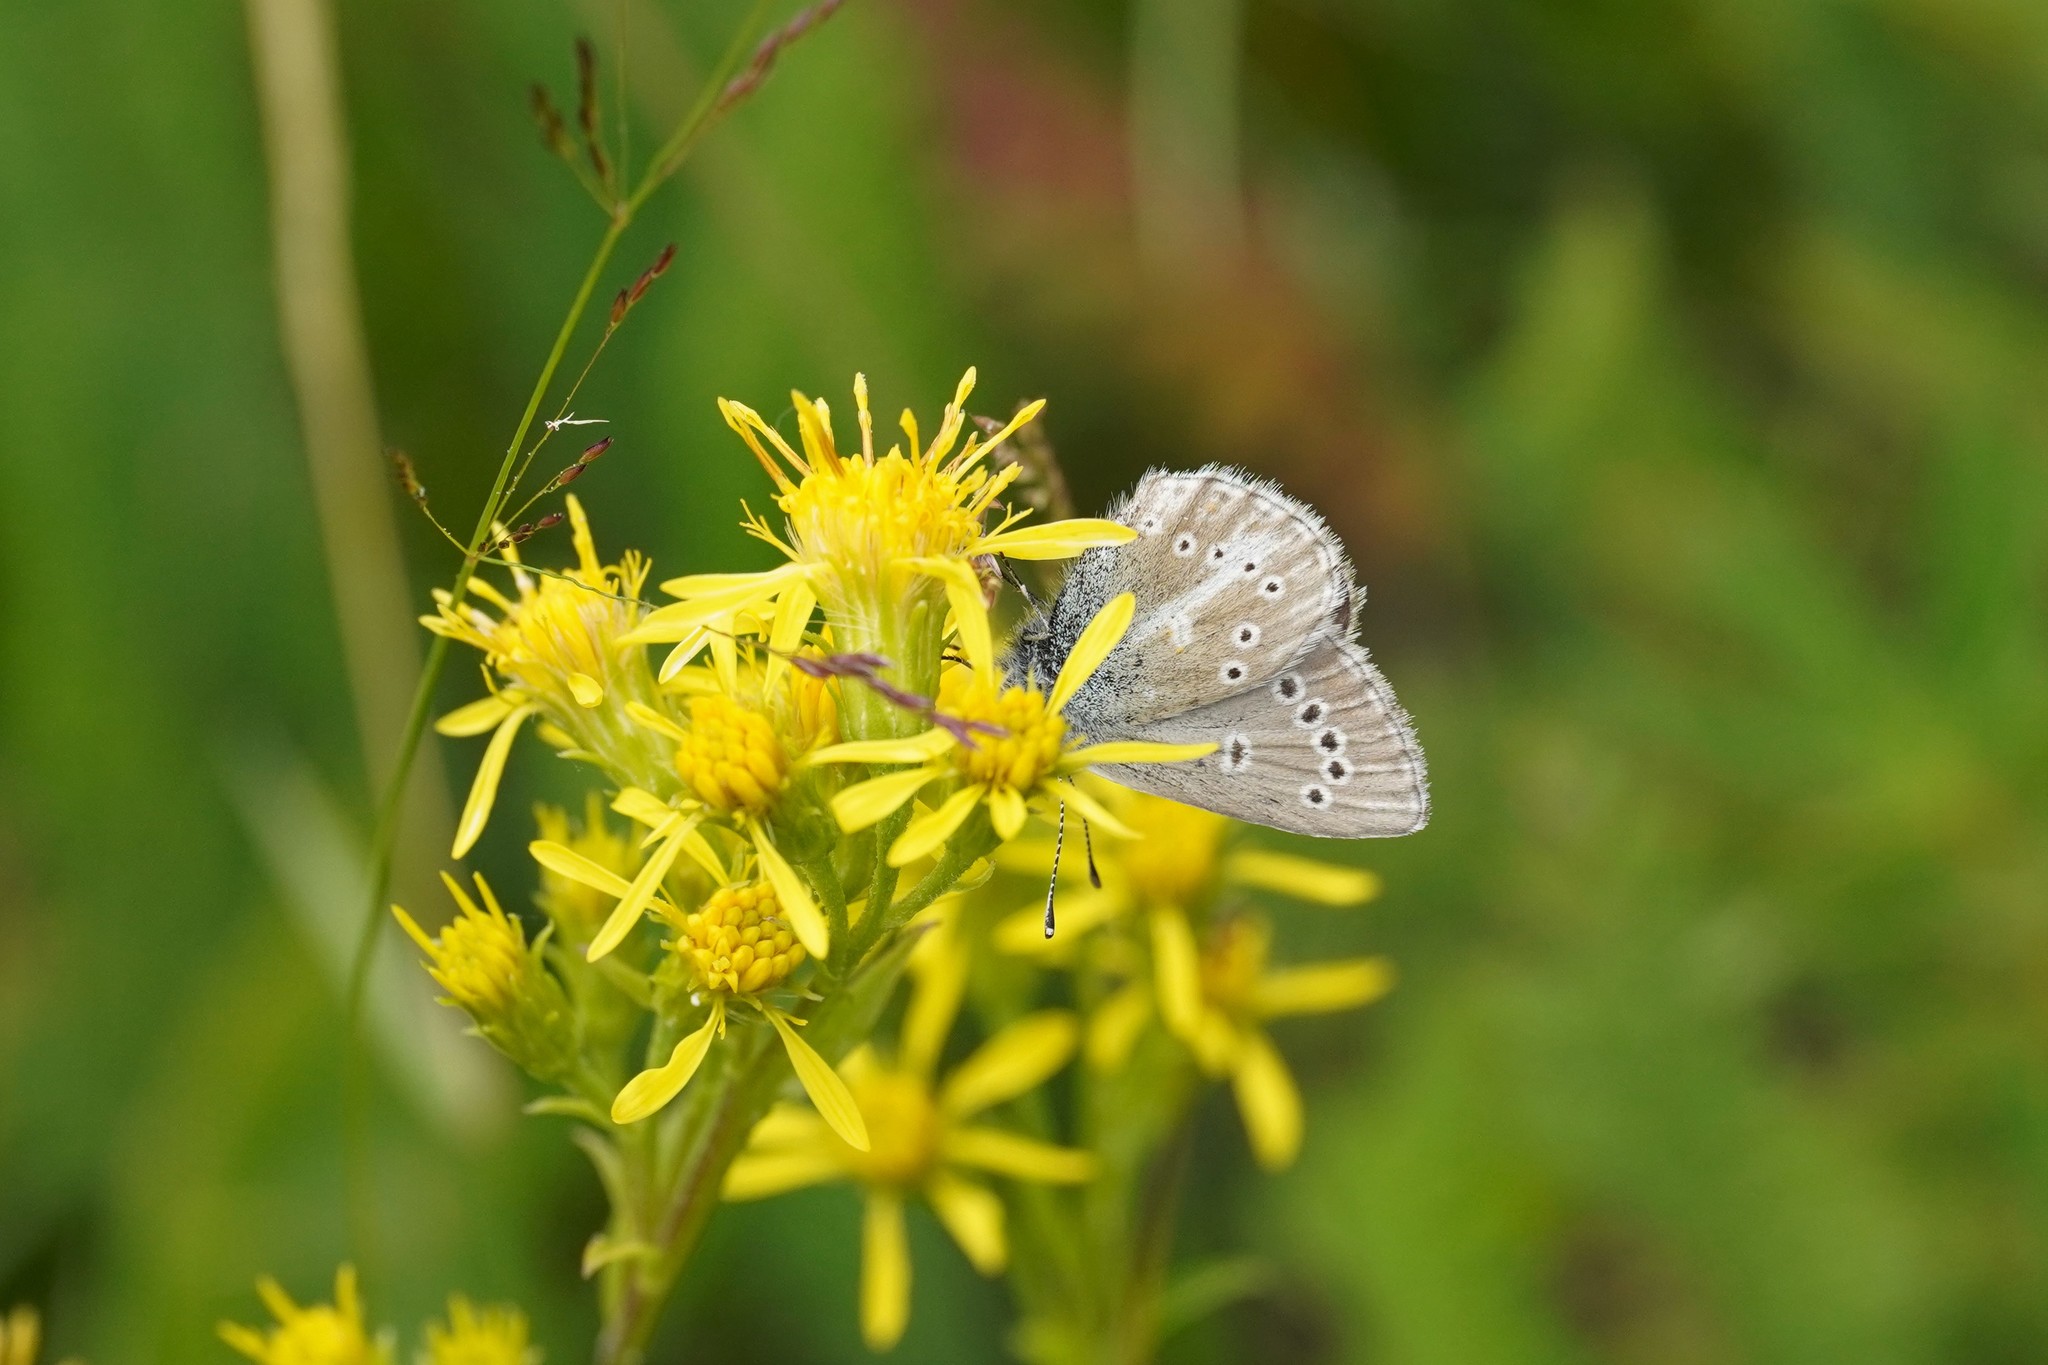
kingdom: Animalia
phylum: Arthropoda
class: Insecta
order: Lepidoptera
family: Lycaenidae
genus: Pseudoaricia
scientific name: Pseudoaricia nicias
